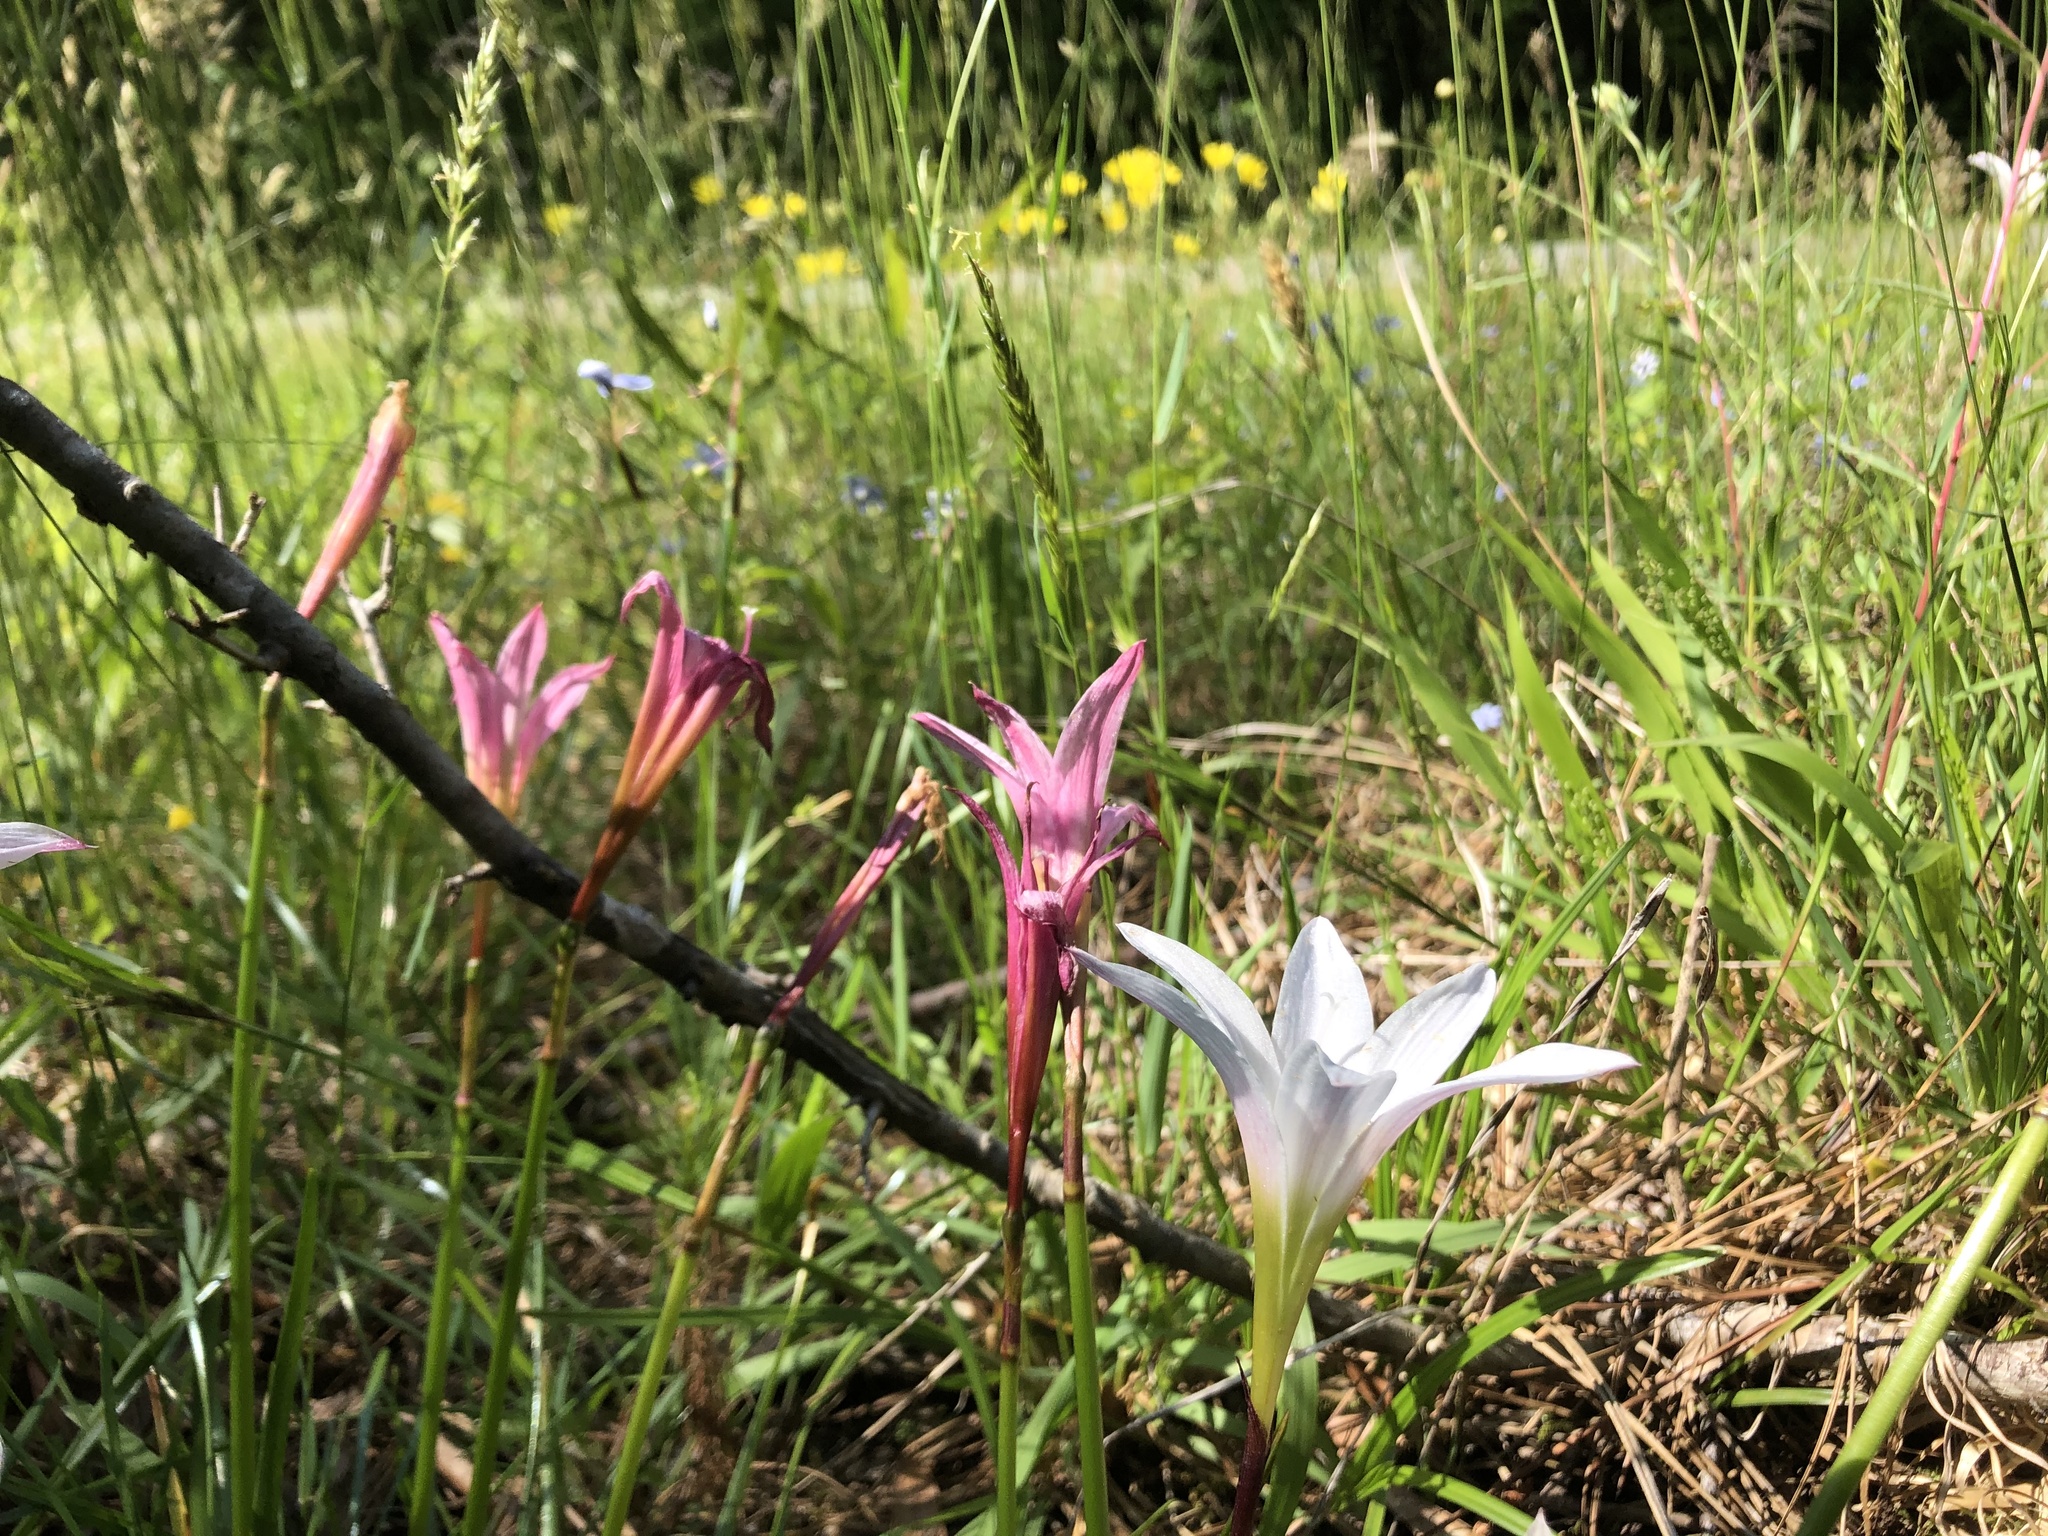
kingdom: Plantae
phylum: Tracheophyta
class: Liliopsida
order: Asparagales
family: Amaryllidaceae
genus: Zephyranthes
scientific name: Zephyranthes atamasco
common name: Atamasco lily
